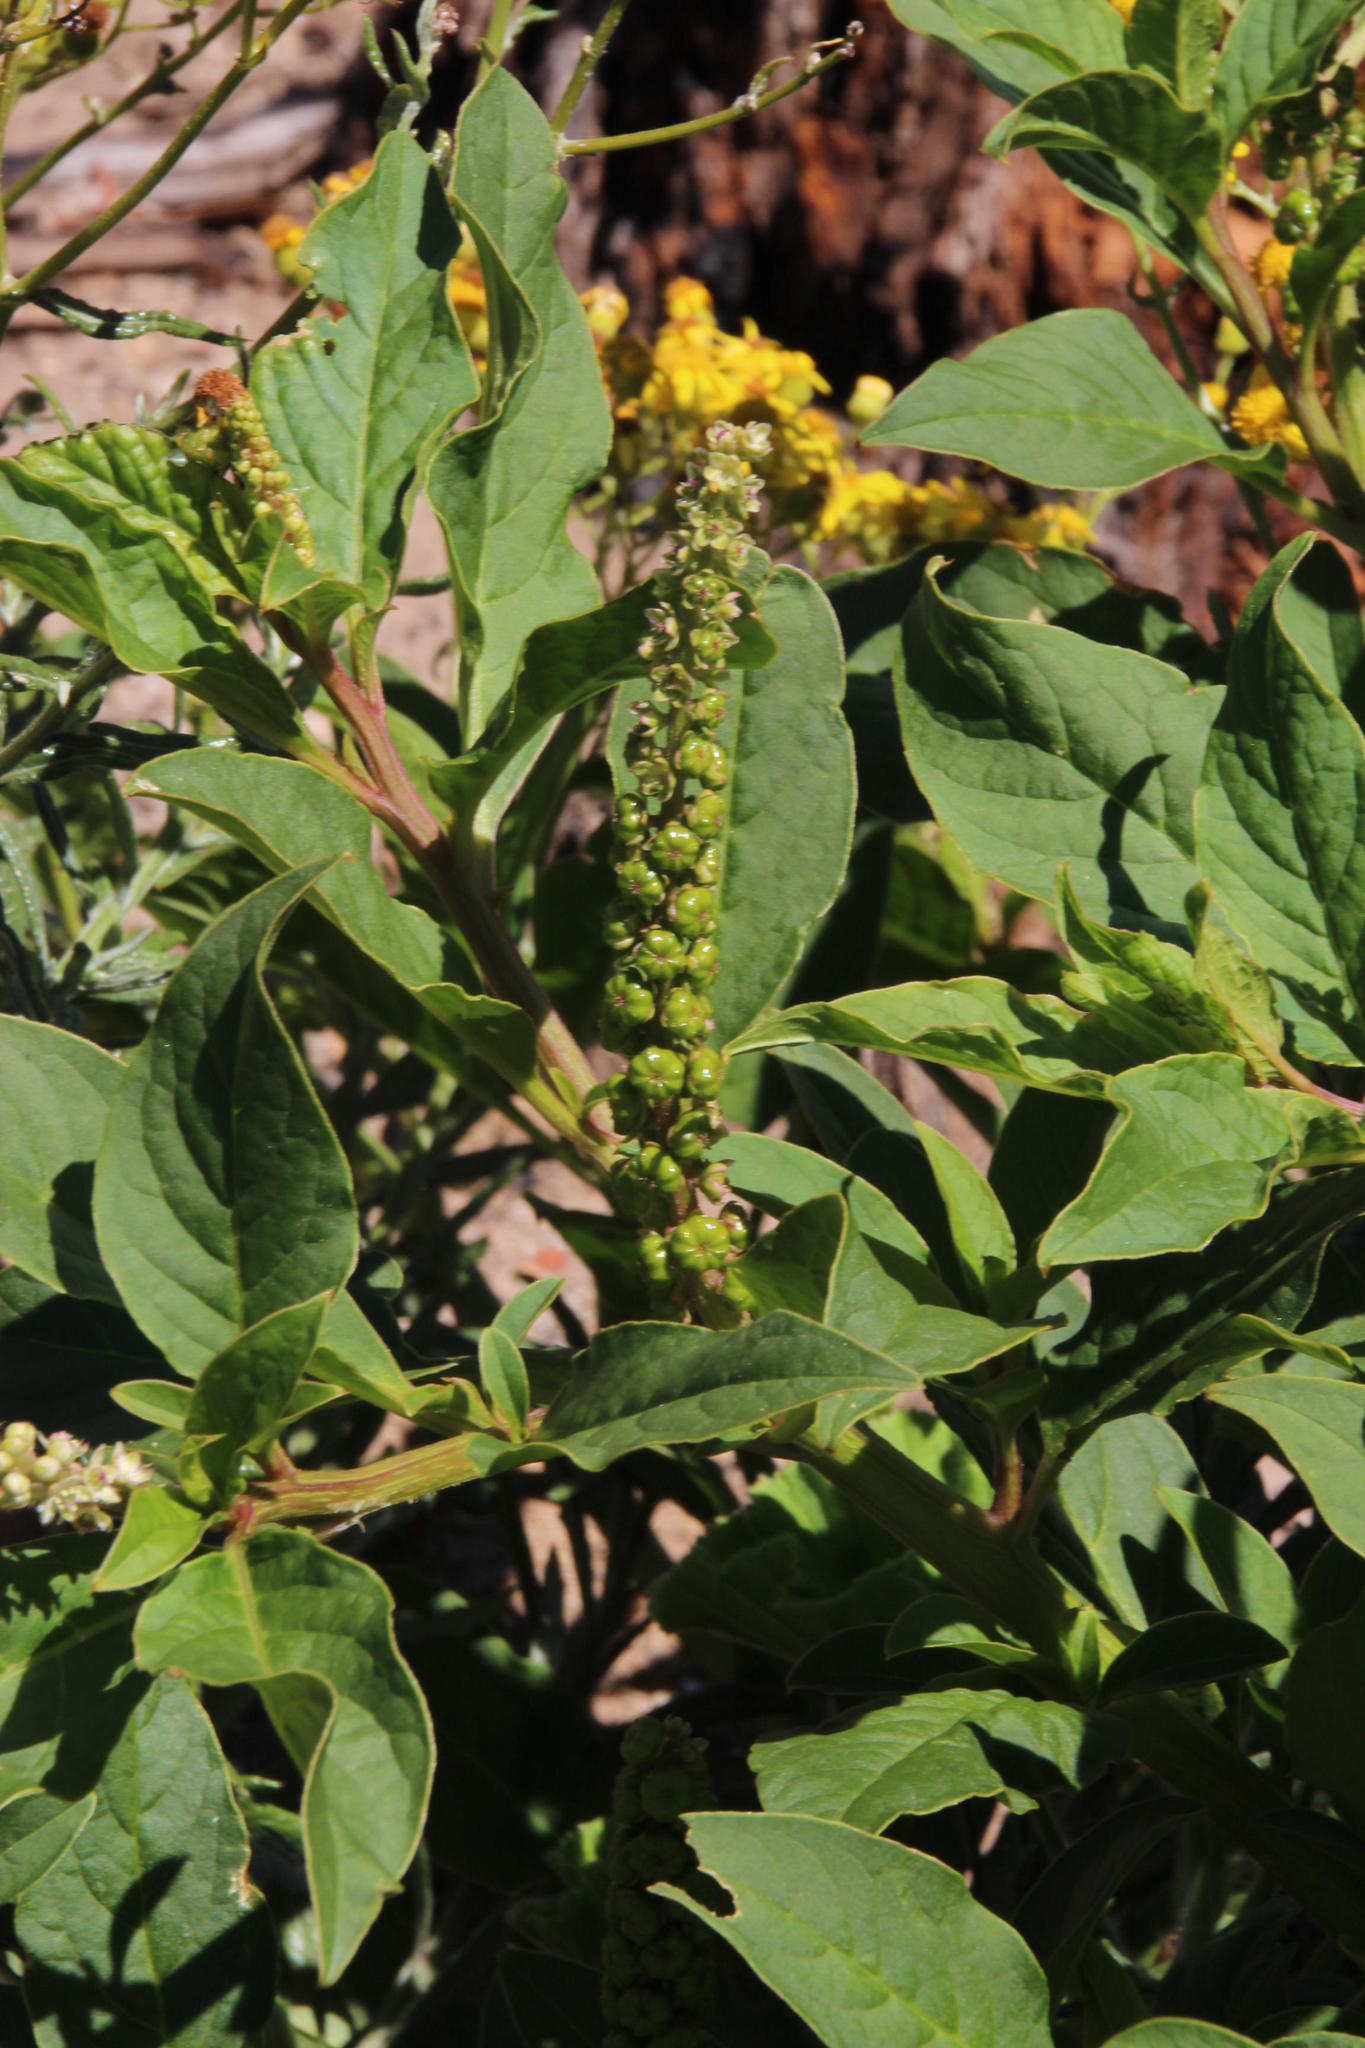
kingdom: Plantae
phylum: Tracheophyta
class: Magnoliopsida
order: Caryophyllales
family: Phytolaccaceae
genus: Phytolacca
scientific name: Phytolacca icosandra
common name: Button pokeweed
